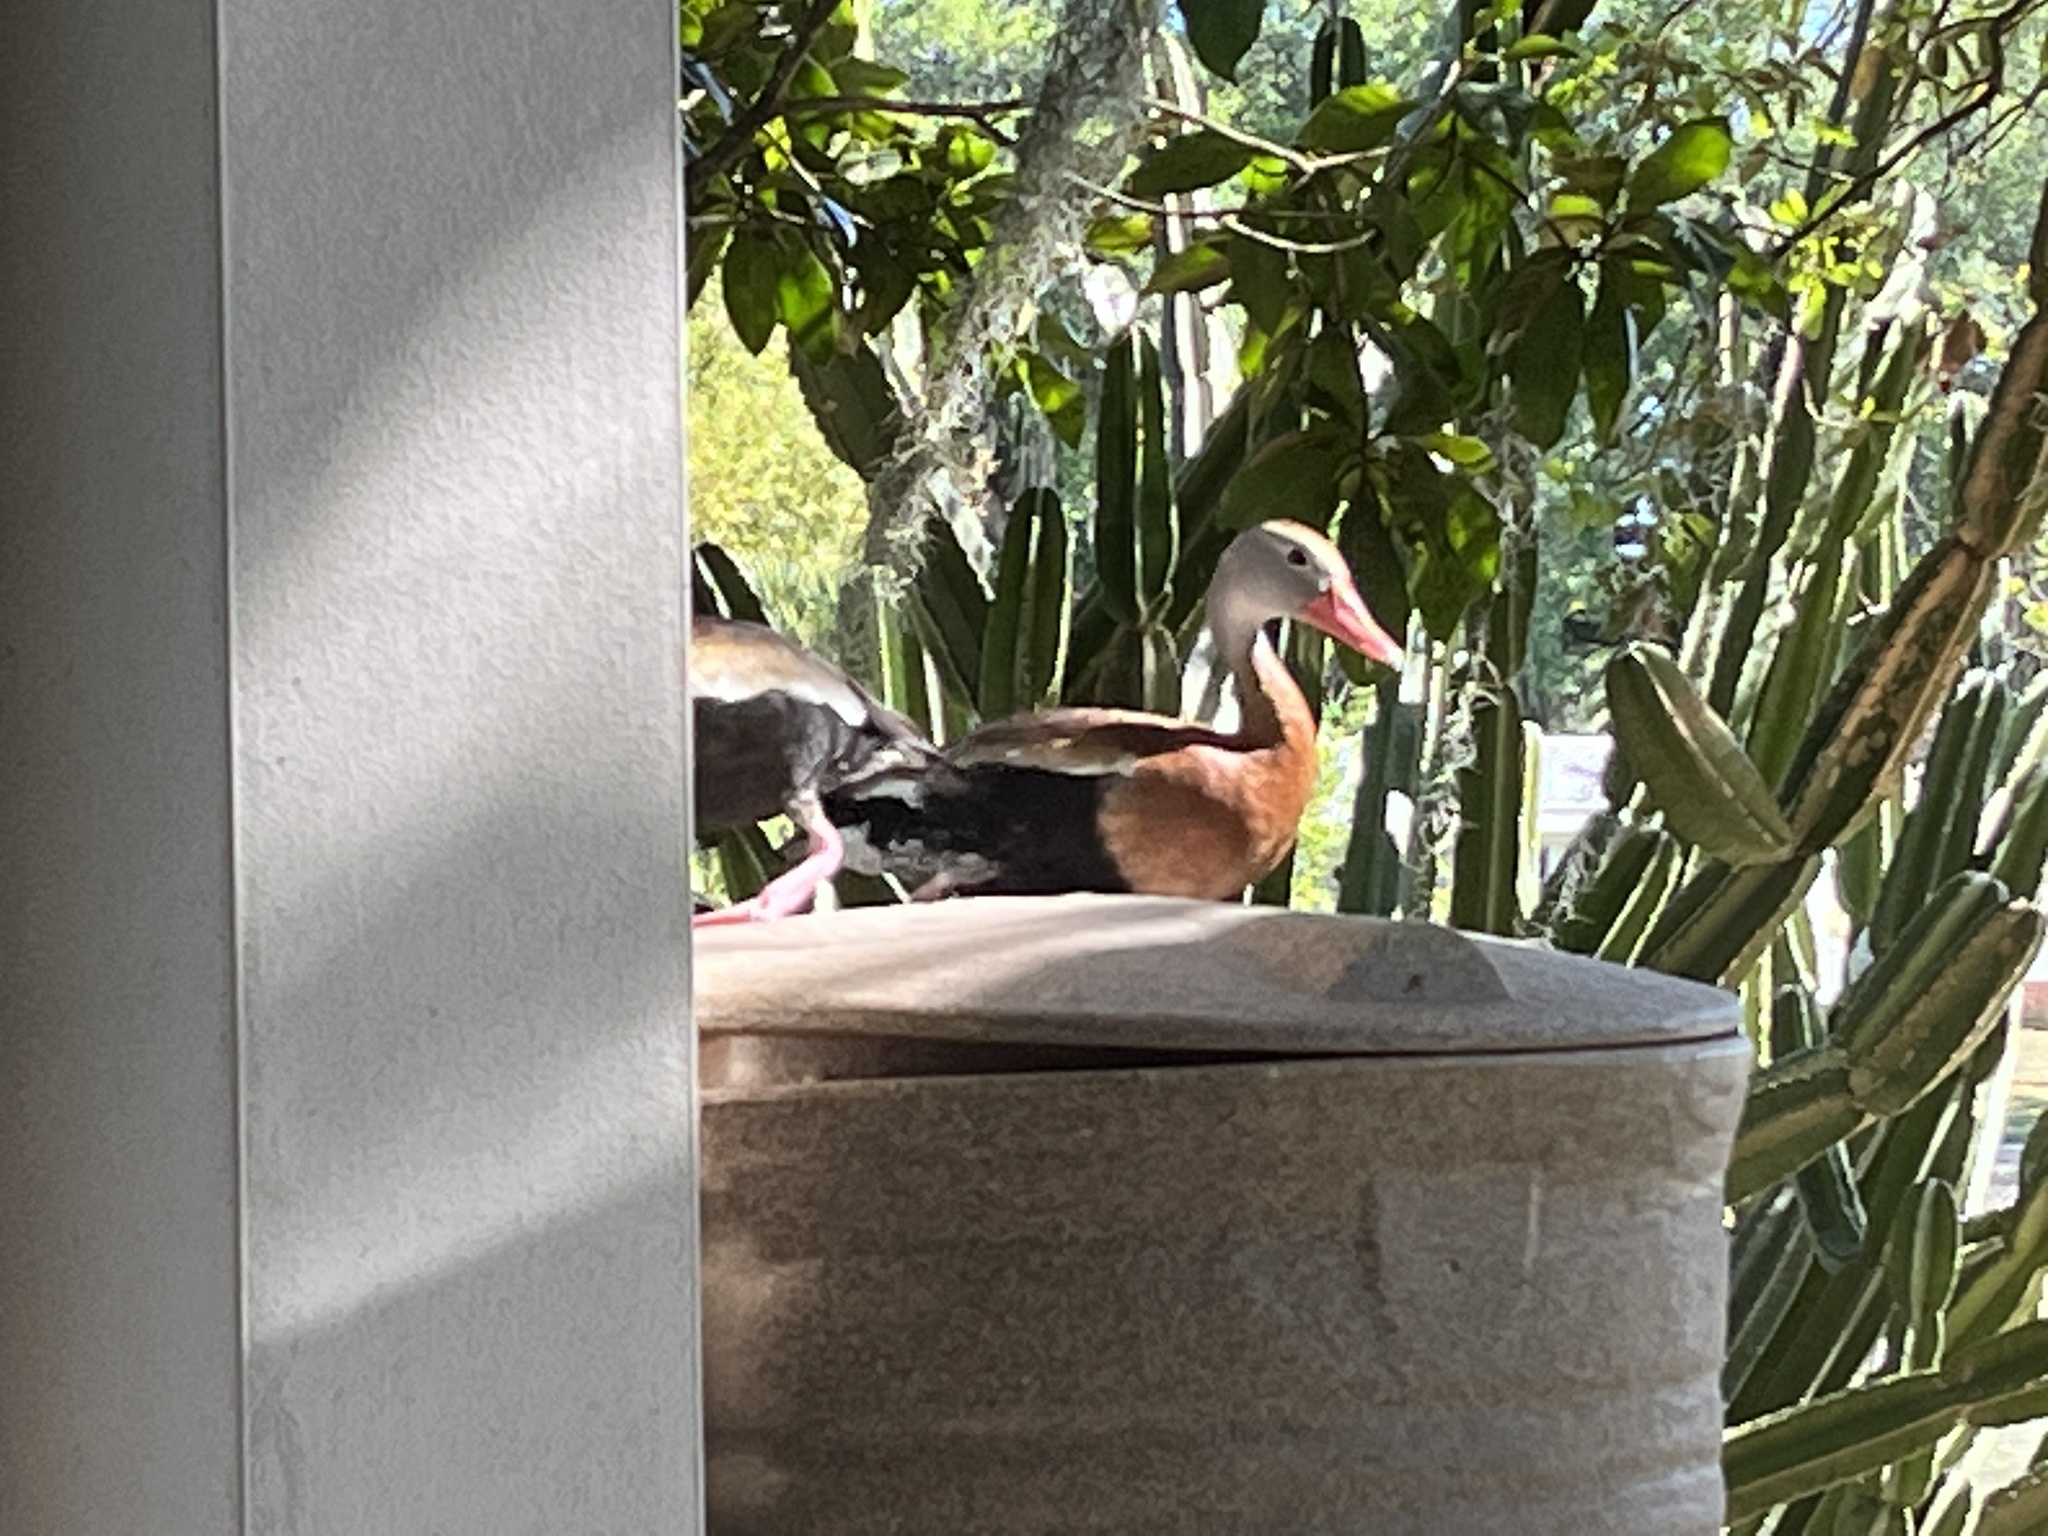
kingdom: Animalia
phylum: Chordata
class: Aves
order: Anseriformes
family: Anatidae
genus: Dendrocygna
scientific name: Dendrocygna autumnalis
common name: Black-bellied whistling duck
